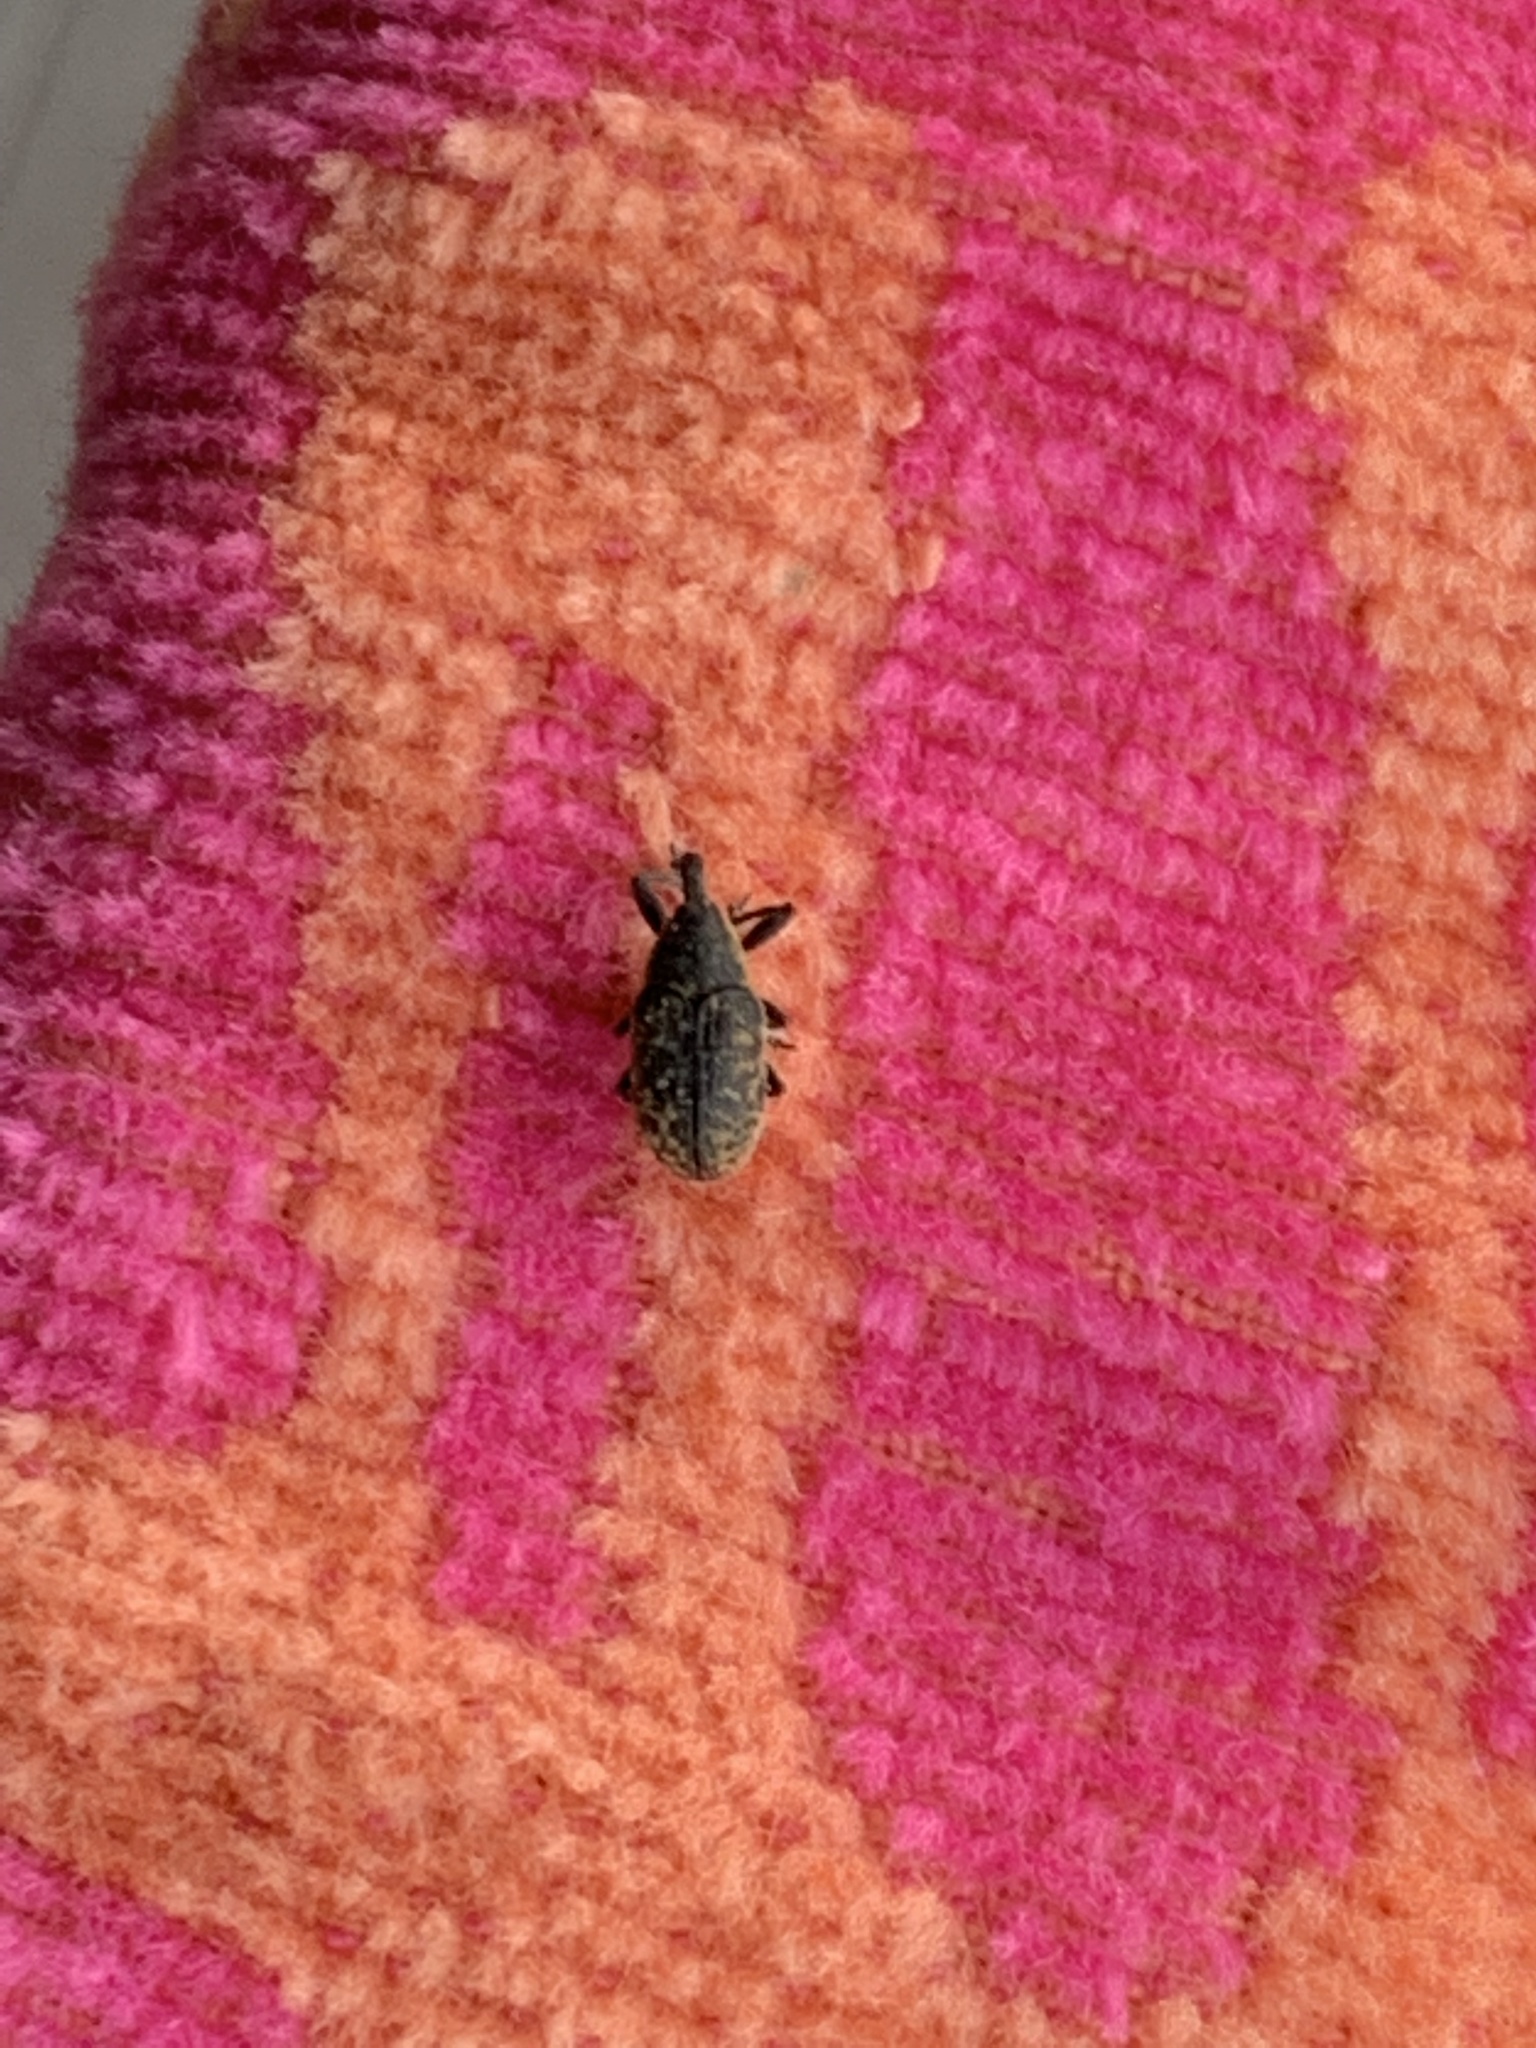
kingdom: Animalia
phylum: Arthropoda
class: Insecta
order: Coleoptera
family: Curculionidae
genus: Larinus
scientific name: Larinus carlinae
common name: Weevil
